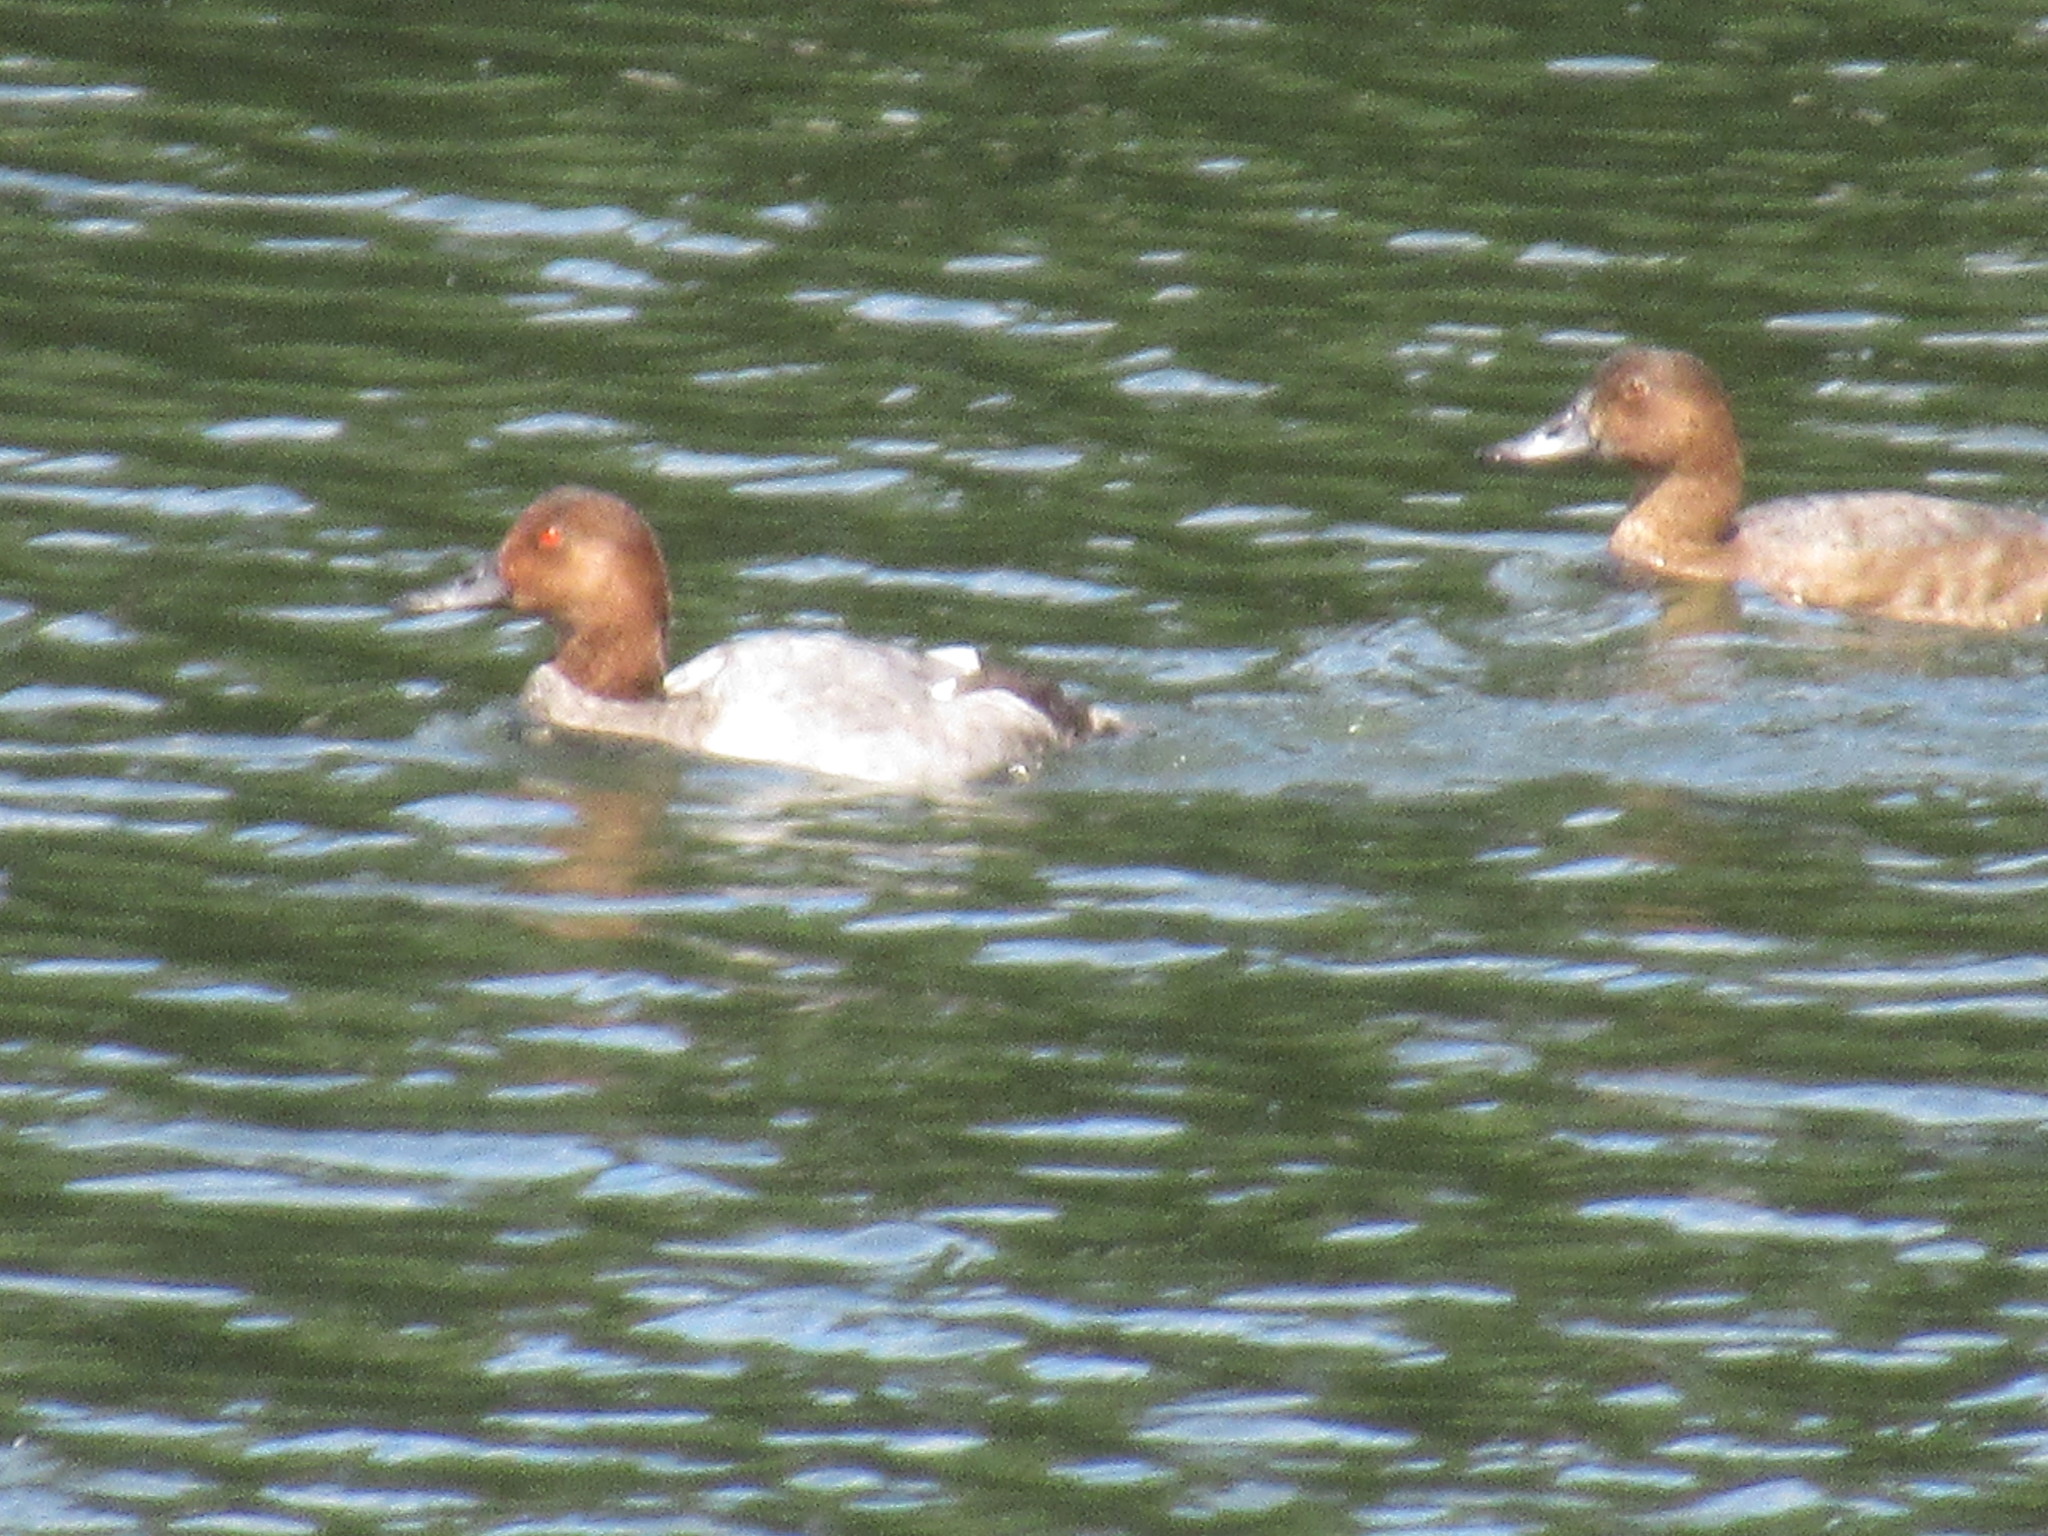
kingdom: Animalia
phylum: Chordata
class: Aves
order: Anseriformes
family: Anatidae
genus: Aythya
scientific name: Aythya ferina
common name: Common pochard
